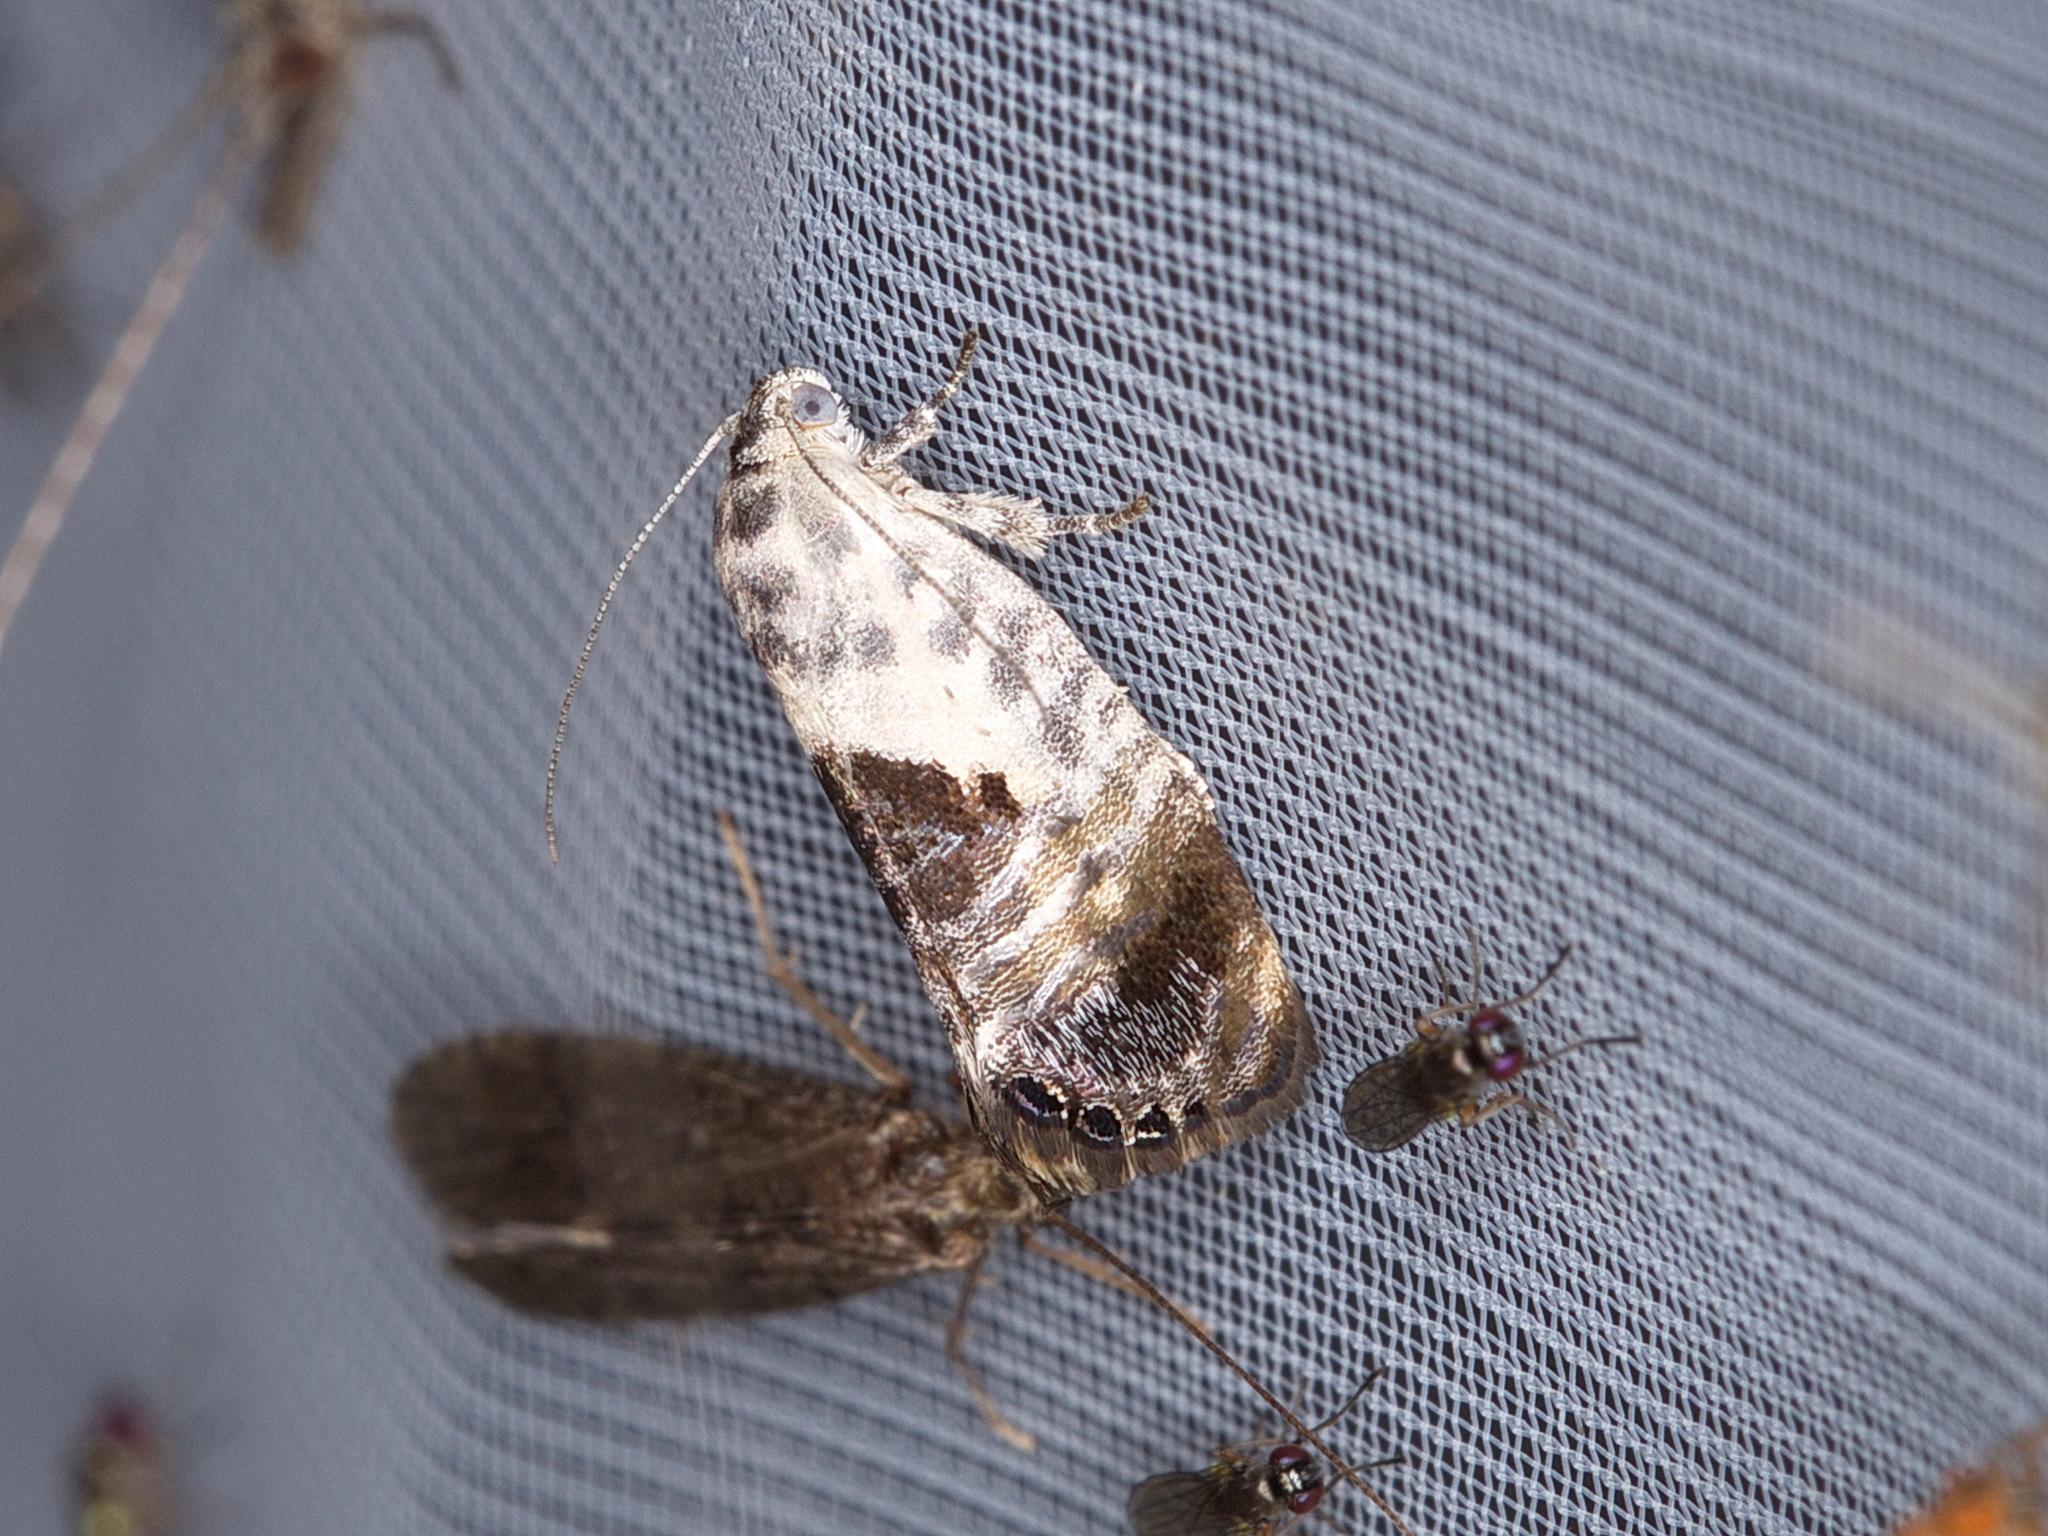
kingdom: Animalia
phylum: Arthropoda
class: Insecta
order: Lepidoptera
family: Depressariidae
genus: Eupselia
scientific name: Eupselia carpocapsella
